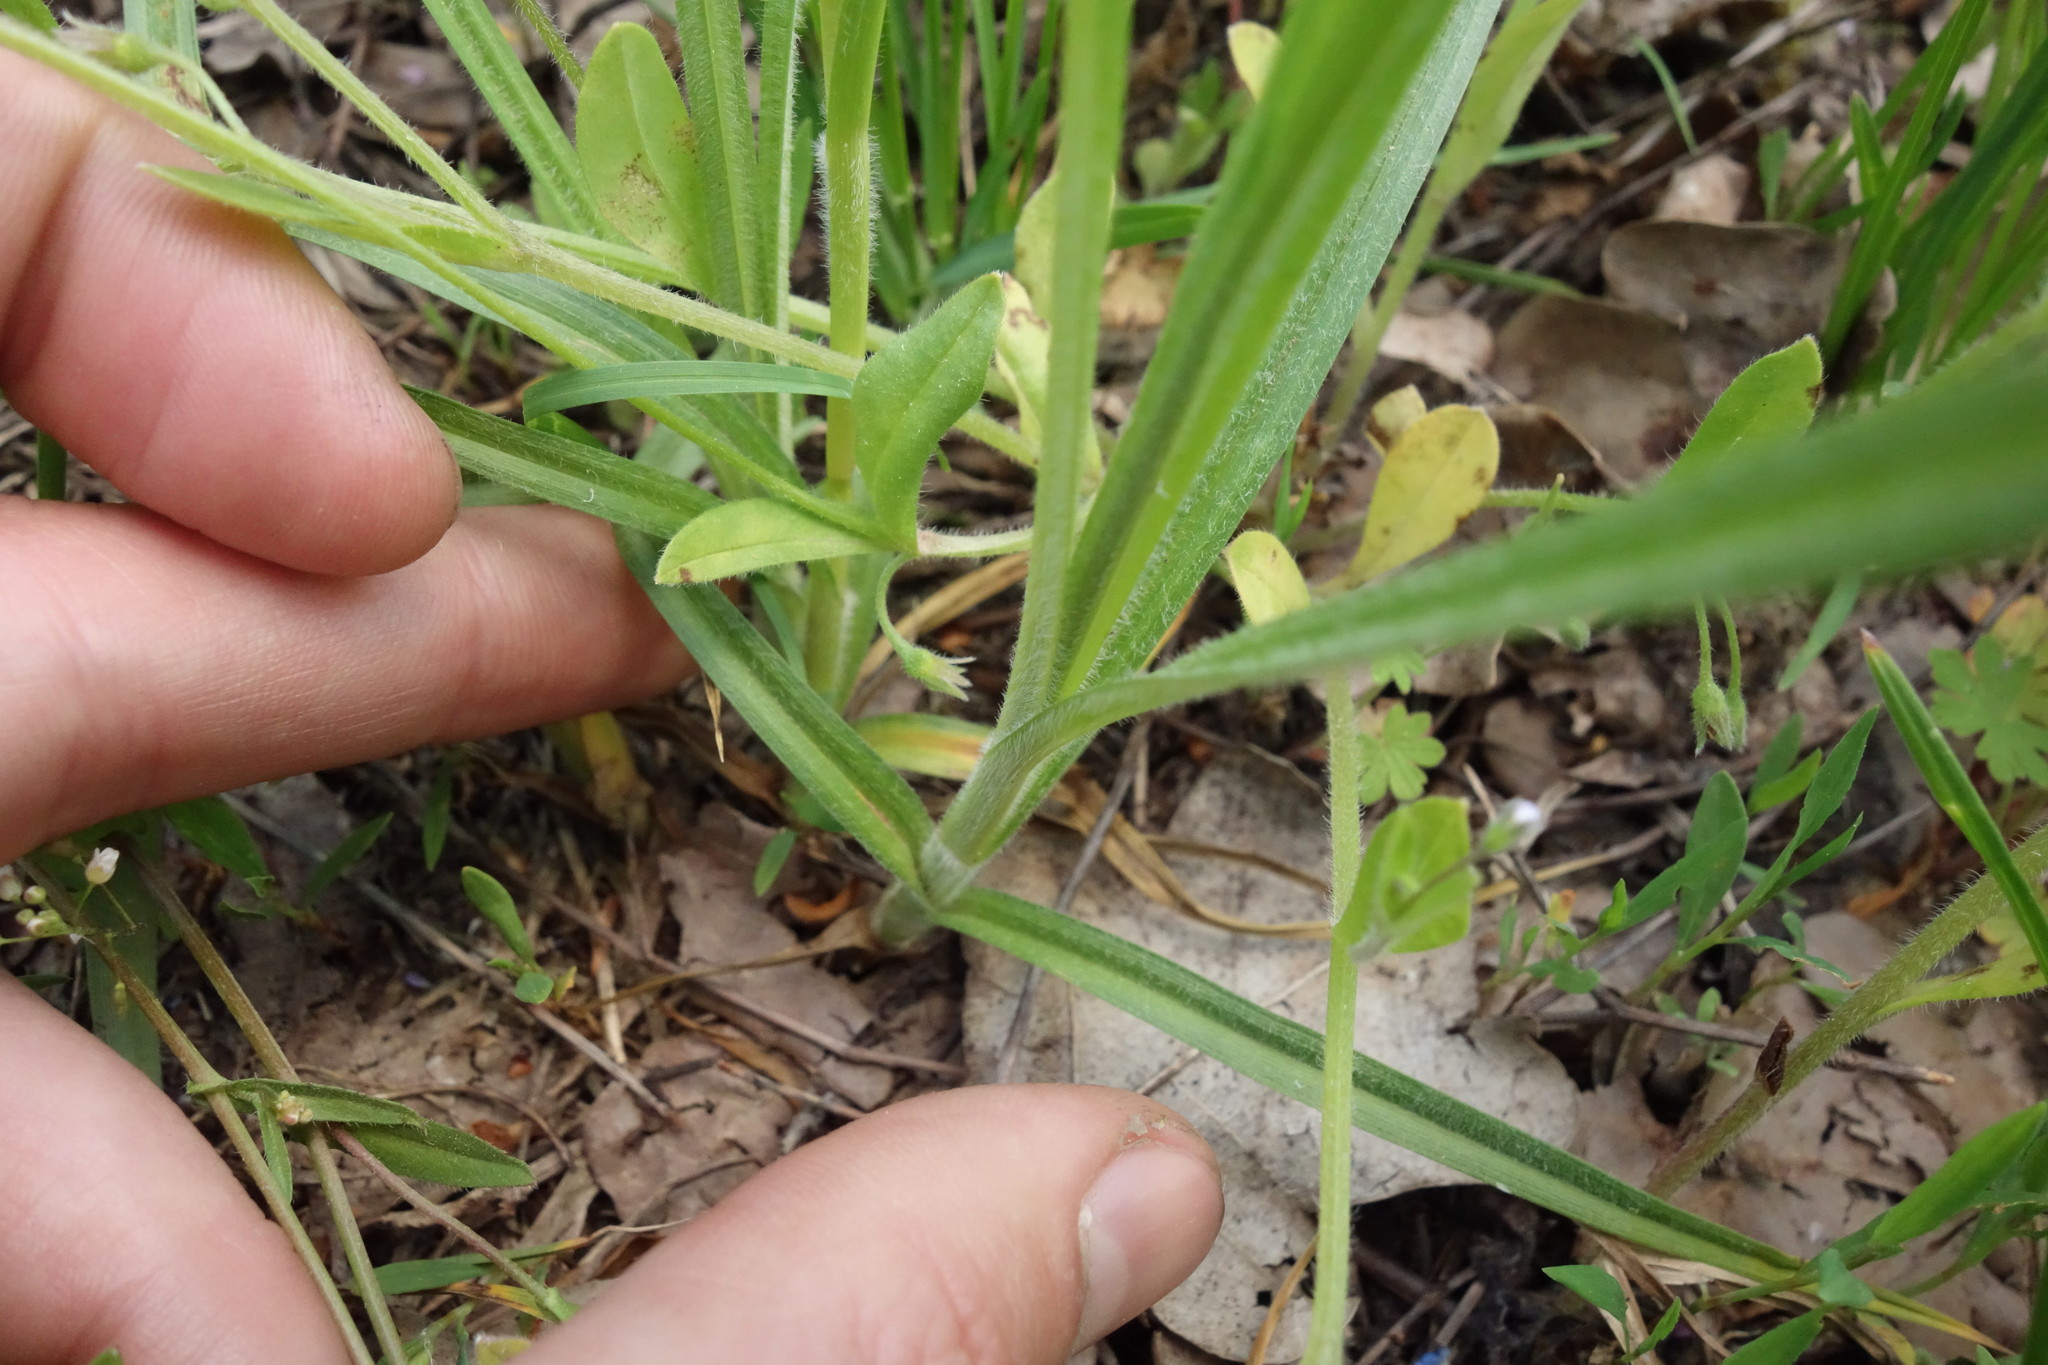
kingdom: Plantae
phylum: Tracheophyta
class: Liliopsida
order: Poales
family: Cyperaceae
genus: Carex
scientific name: Carex hirta
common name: Hairy sedge
